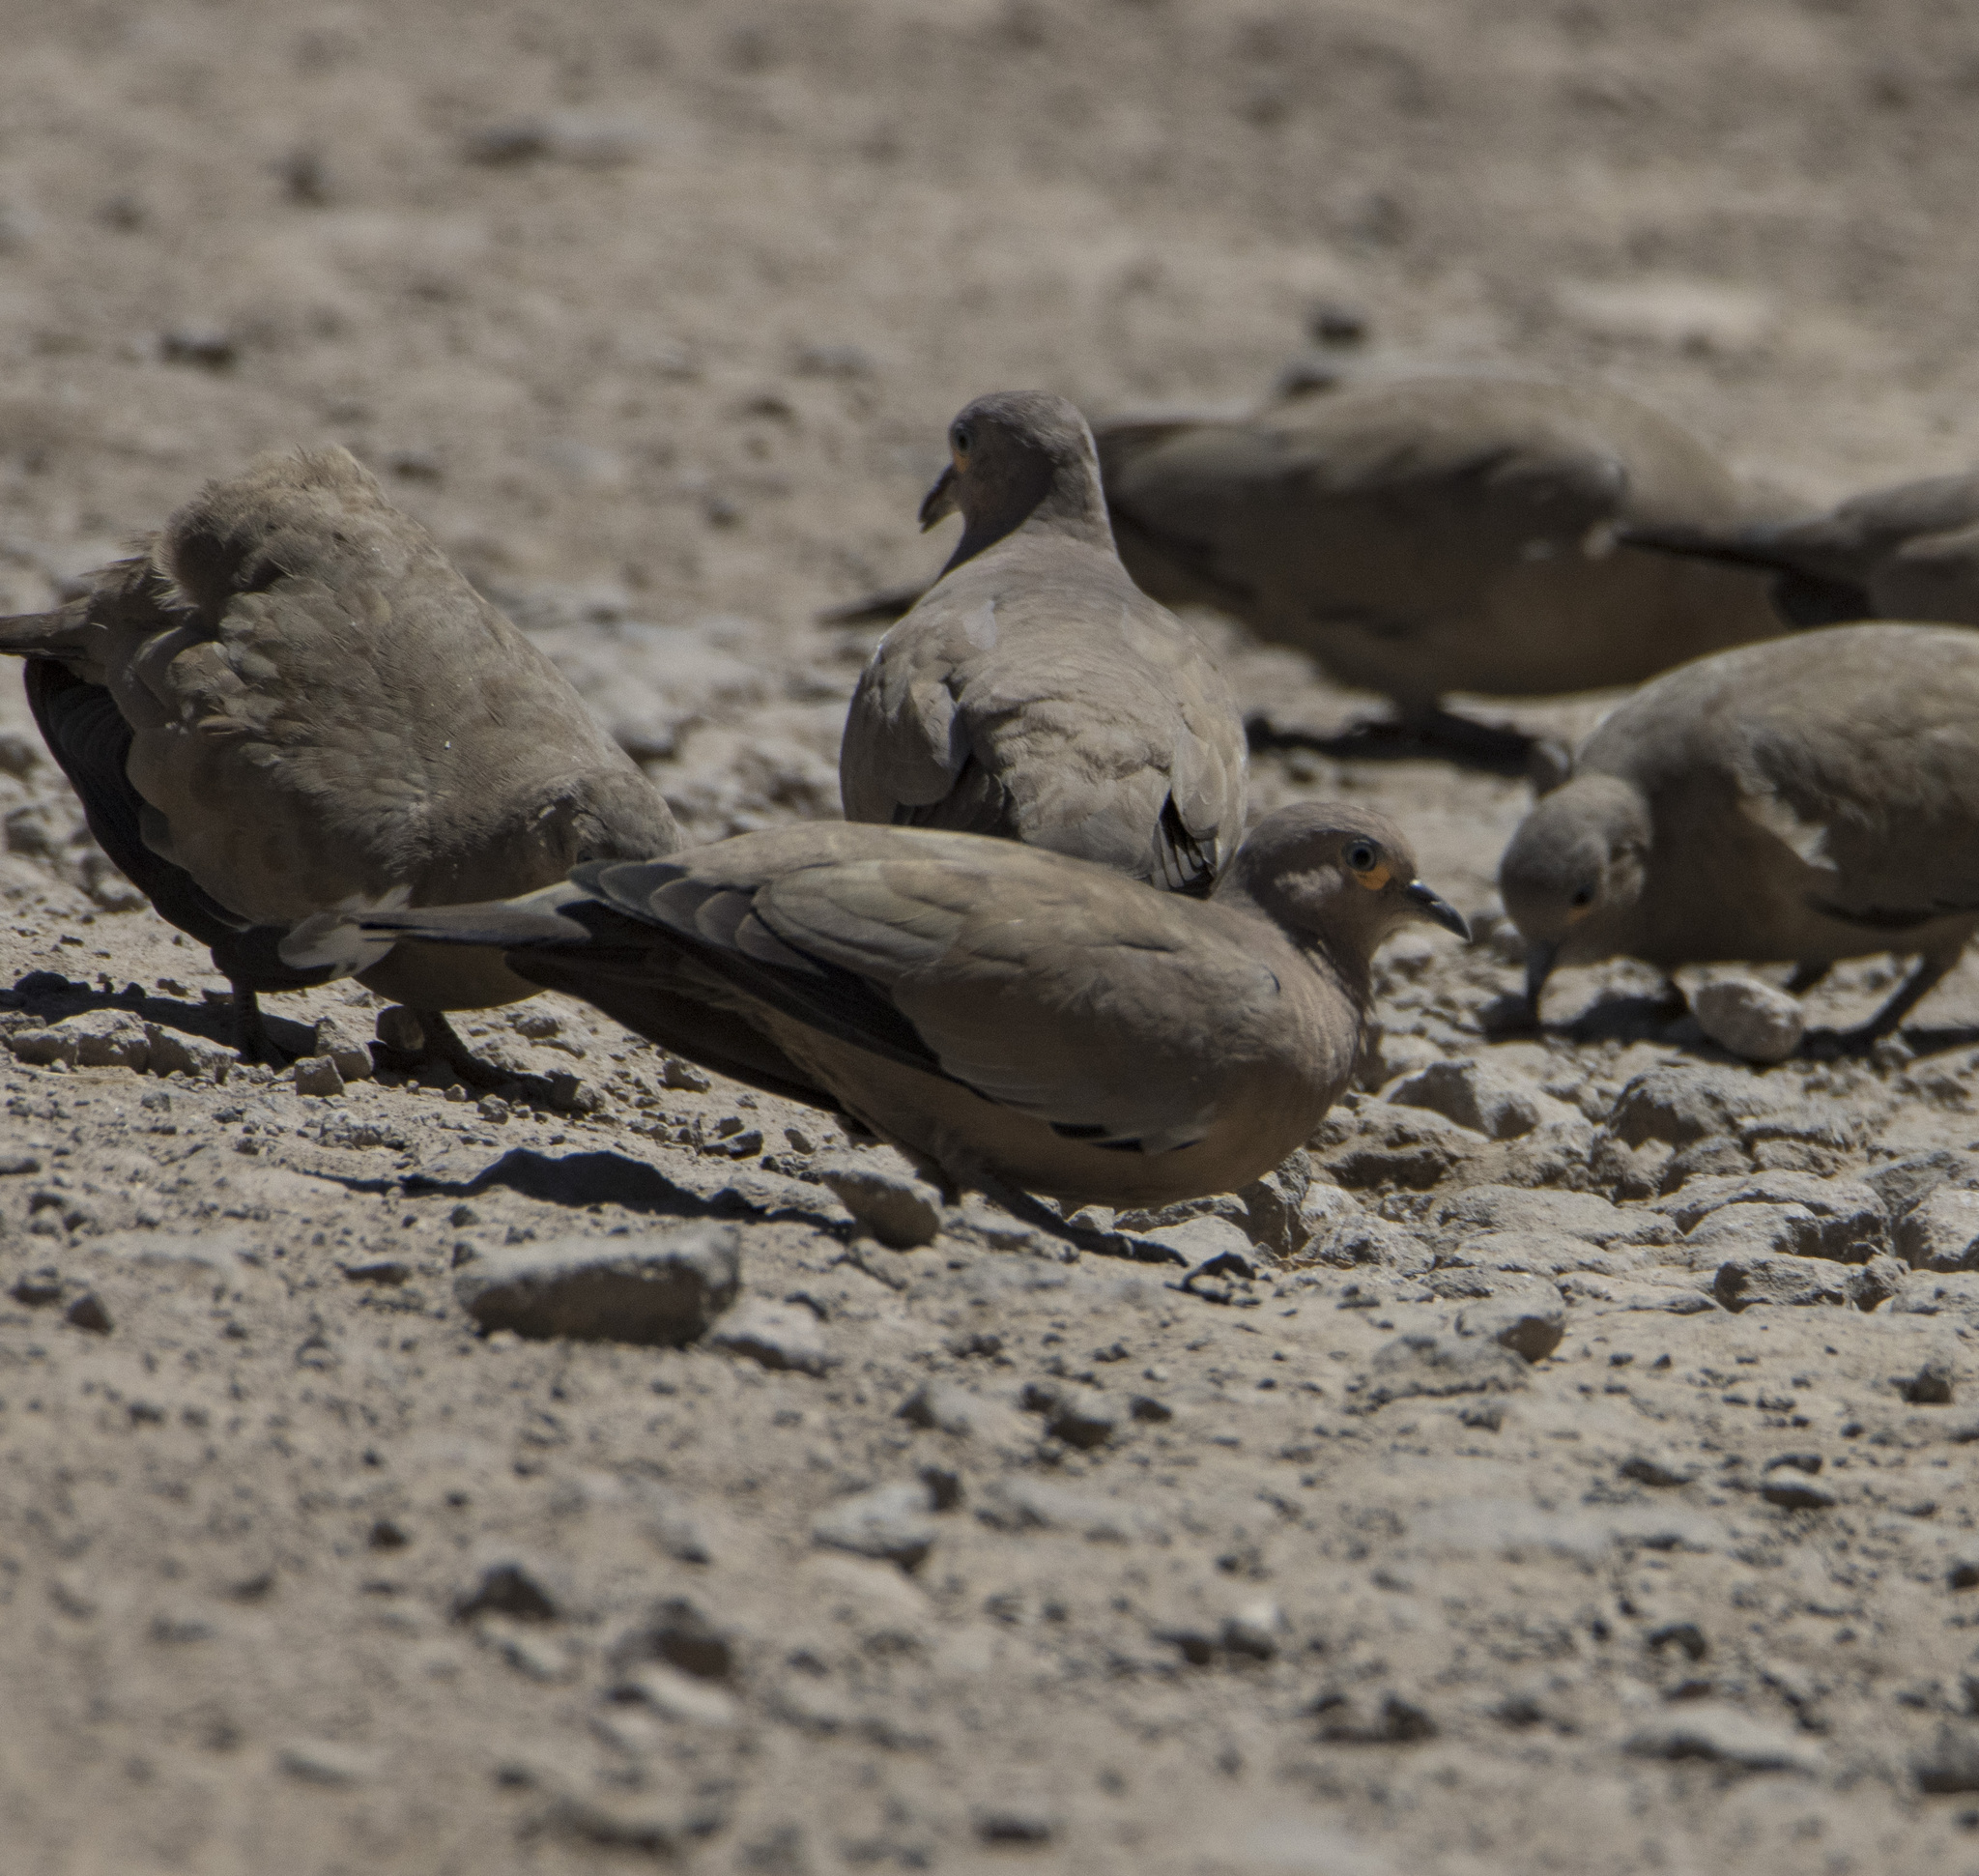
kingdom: Animalia
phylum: Chordata
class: Aves
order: Columbiformes
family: Columbidae
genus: Metriopelia
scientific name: Metriopelia melanoptera
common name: Black-winged ground dove
